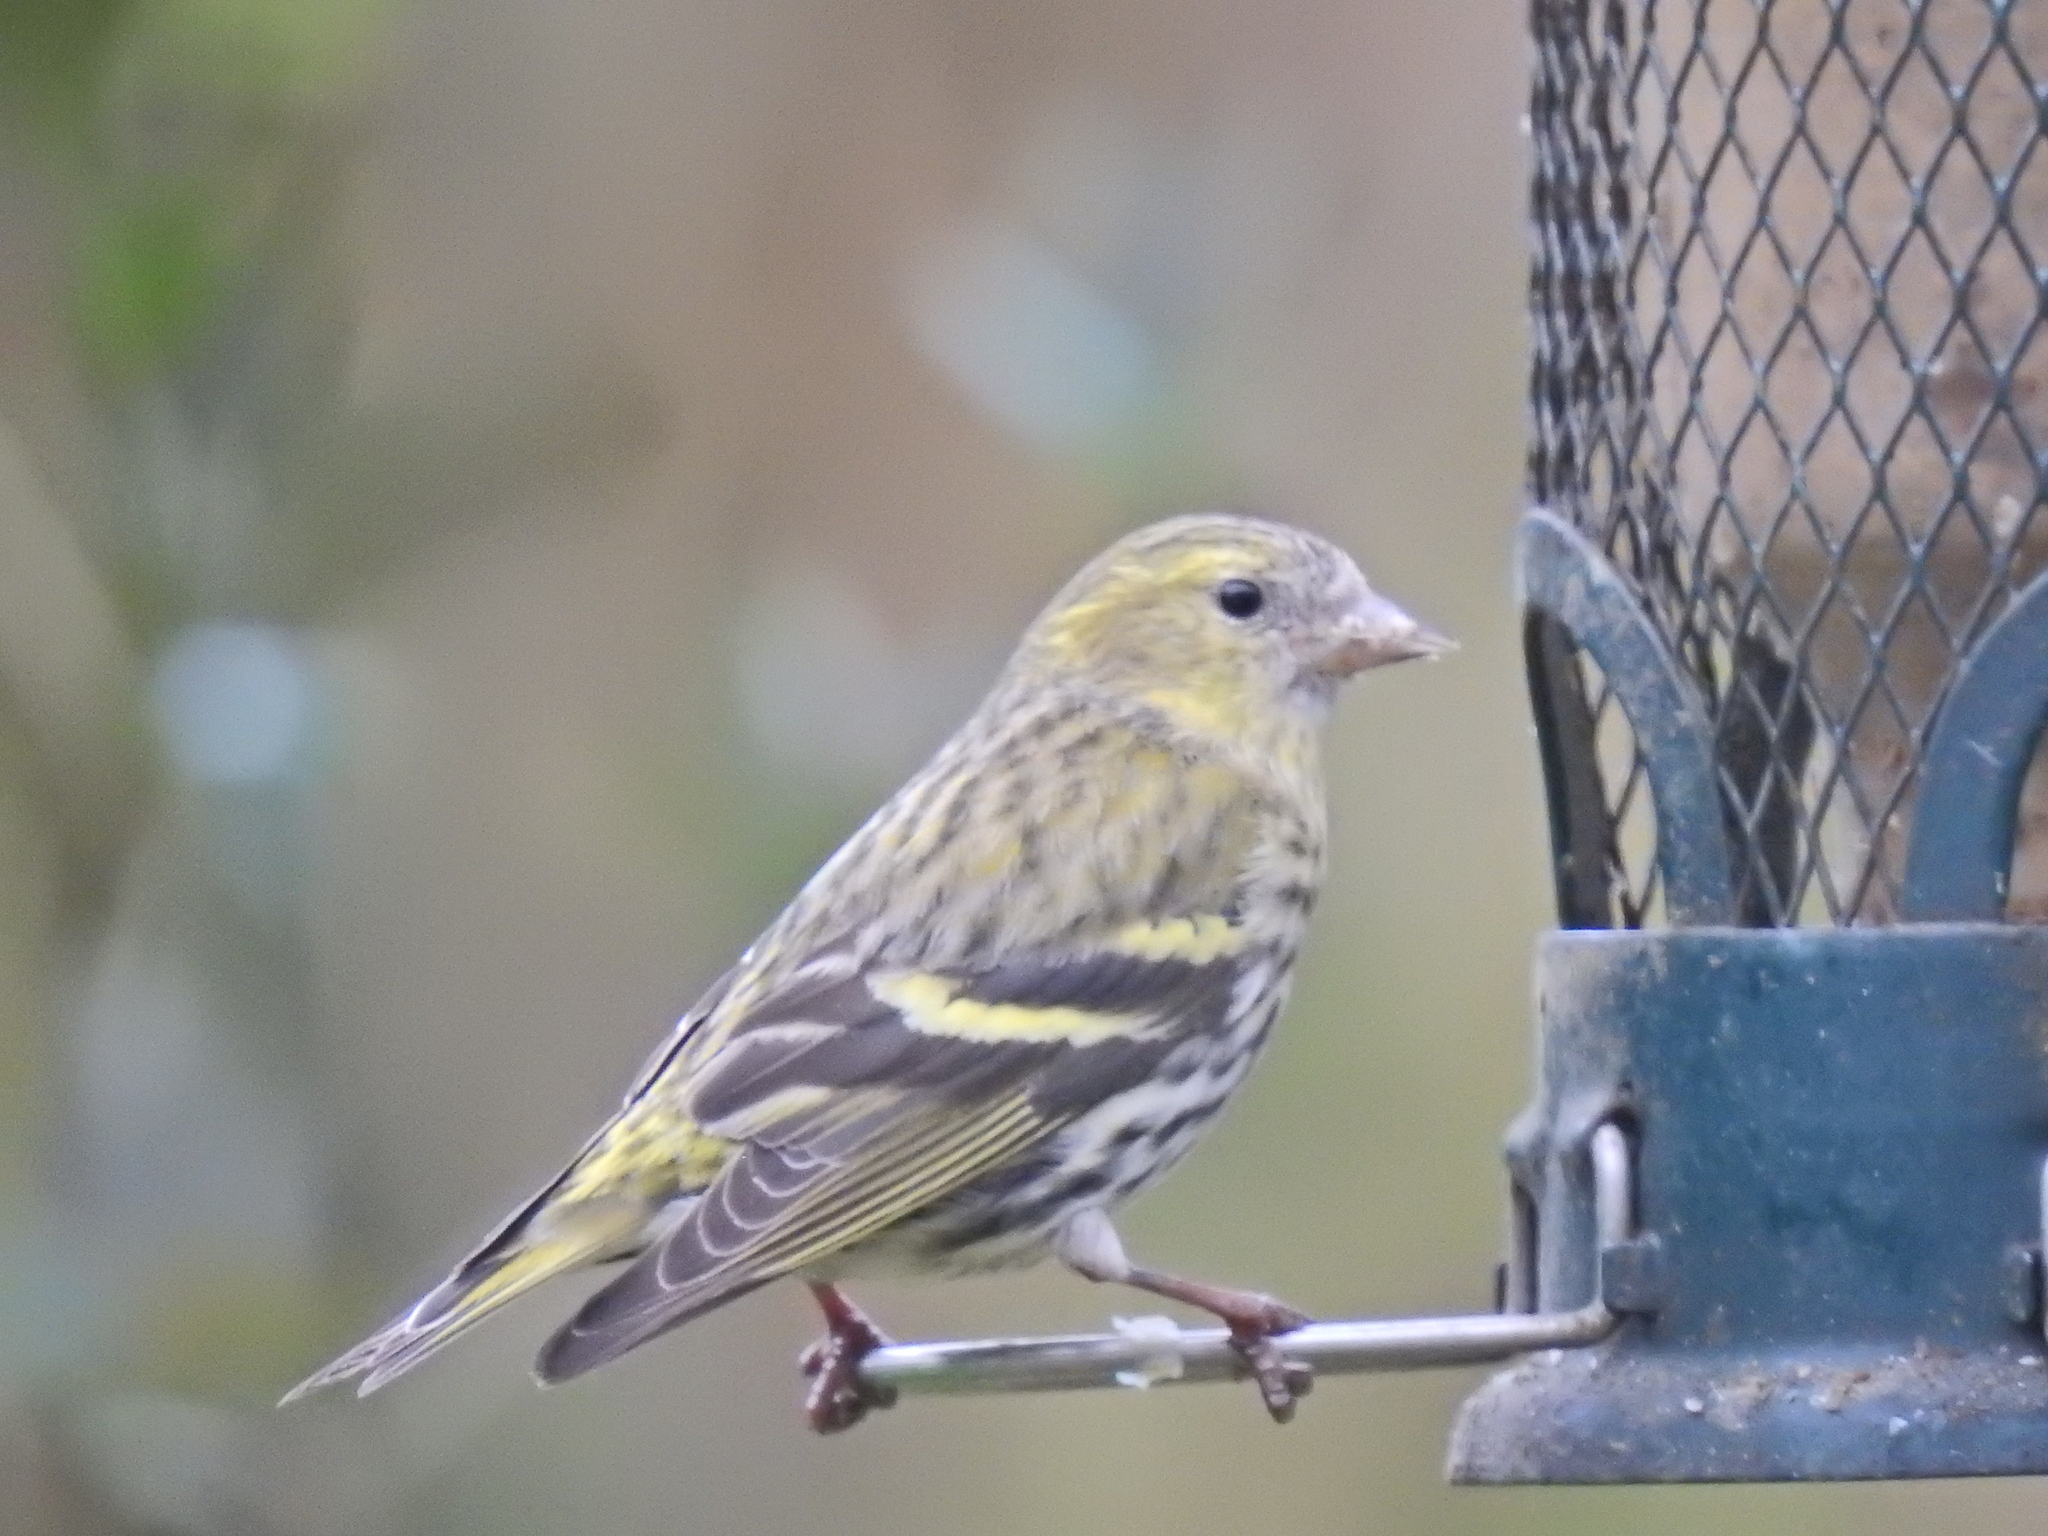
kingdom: Animalia
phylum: Chordata
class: Aves
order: Passeriformes
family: Fringillidae
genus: Spinus
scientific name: Spinus spinus
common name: Eurasian siskin
